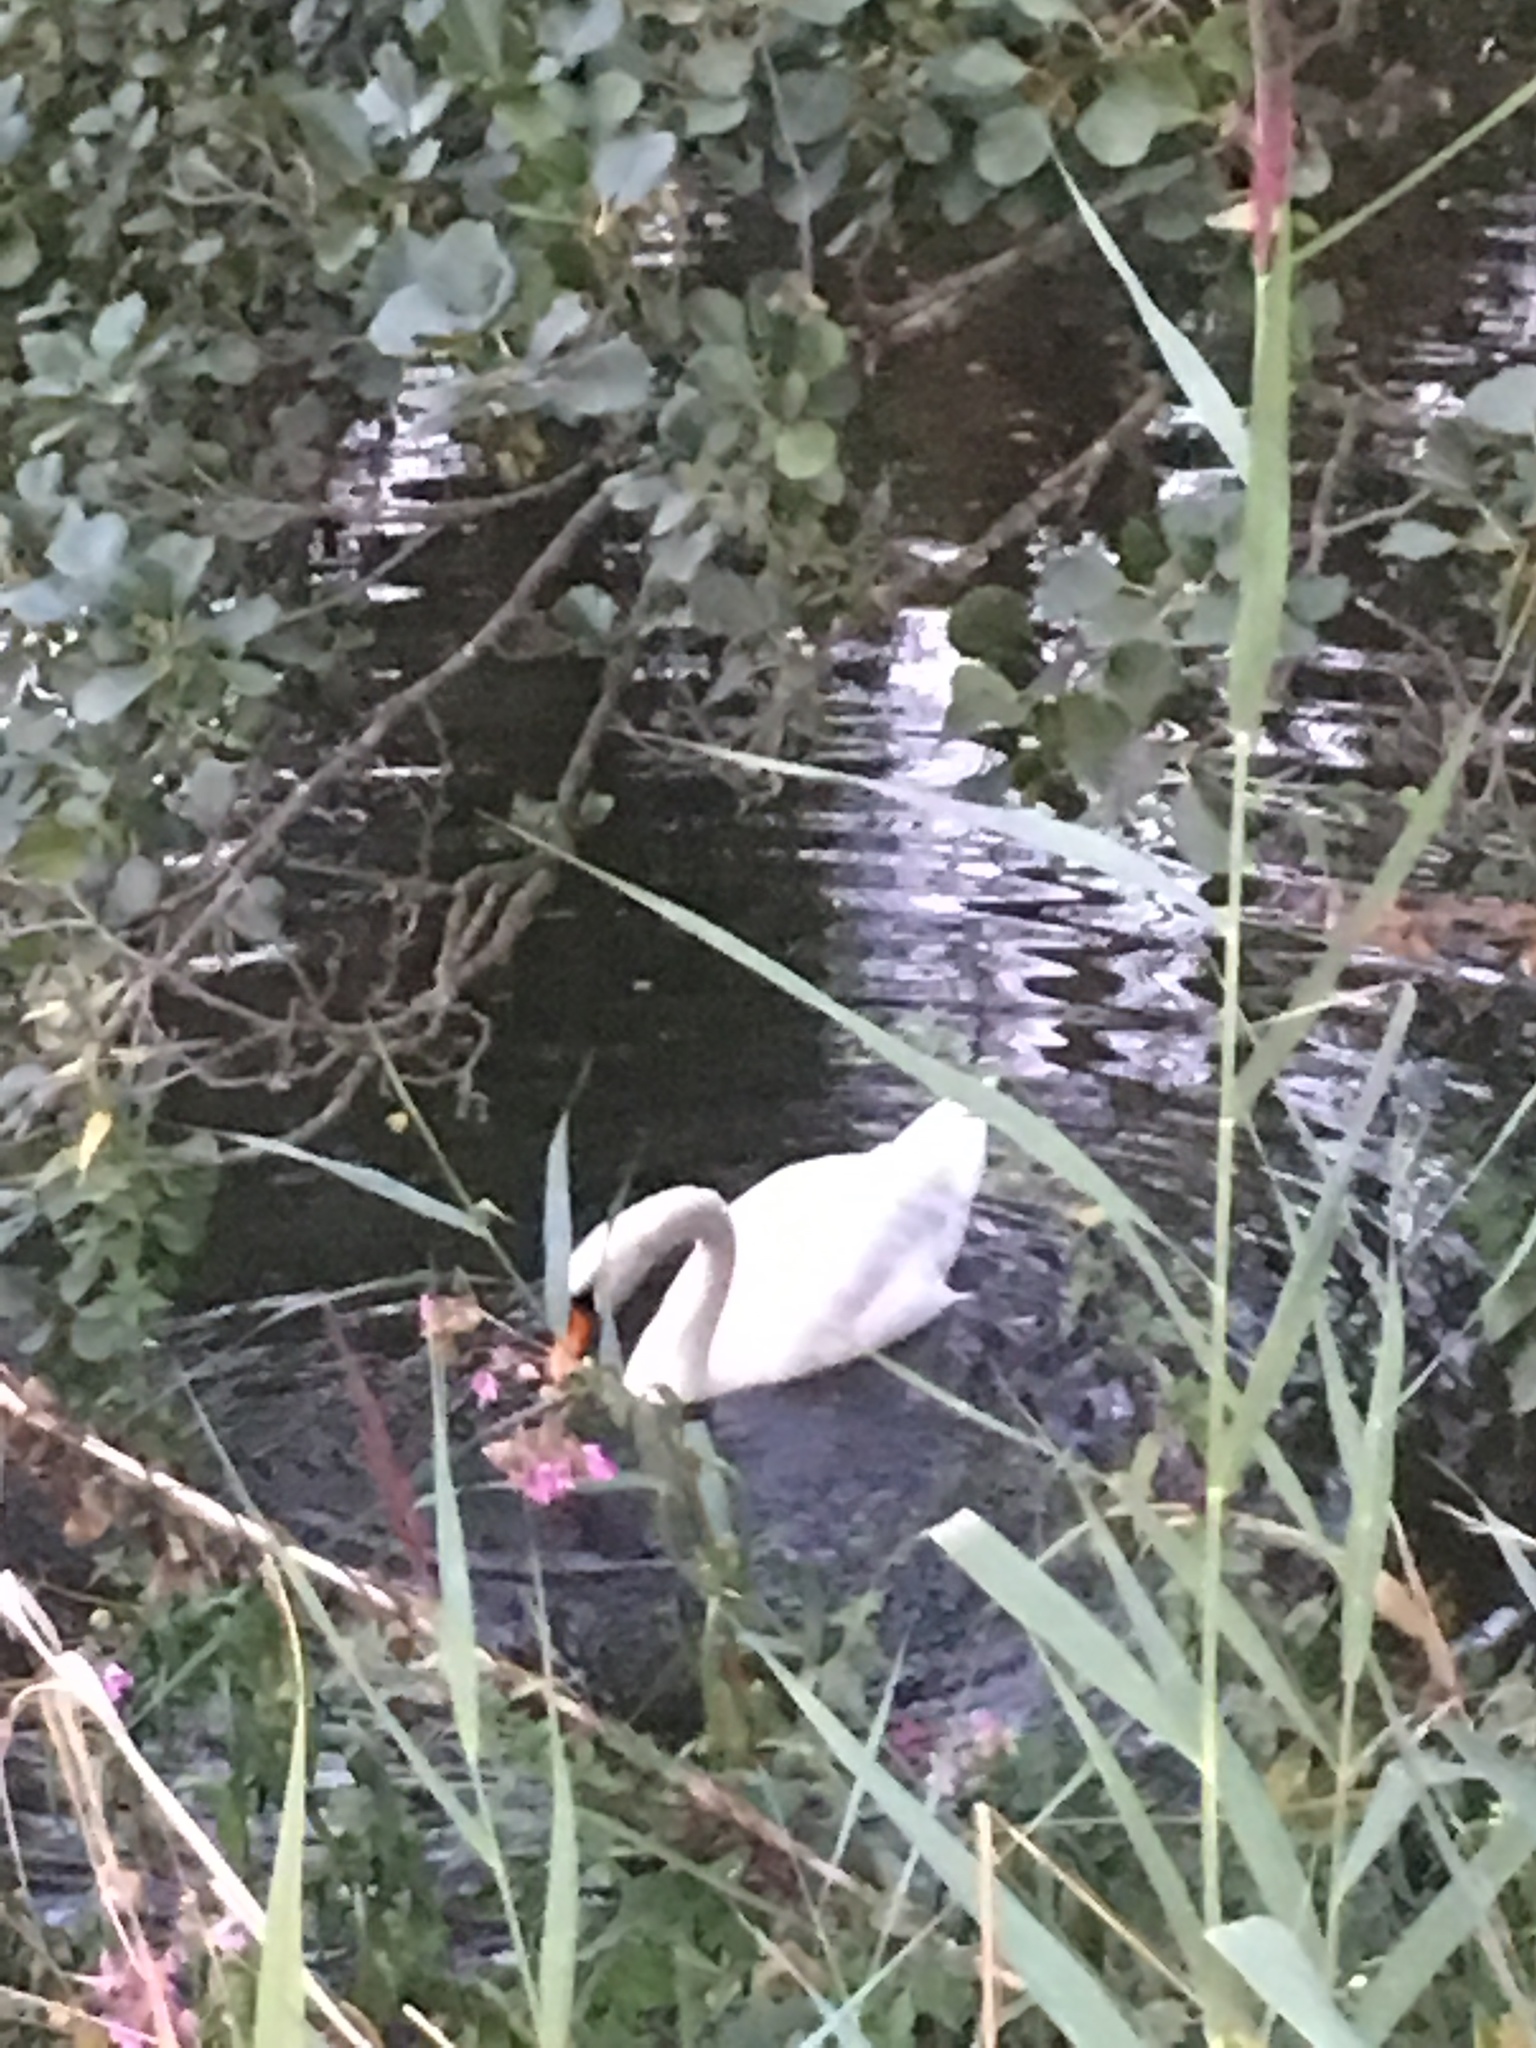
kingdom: Animalia
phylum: Chordata
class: Aves
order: Anseriformes
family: Anatidae
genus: Cygnus
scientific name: Cygnus olor
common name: Mute swan
